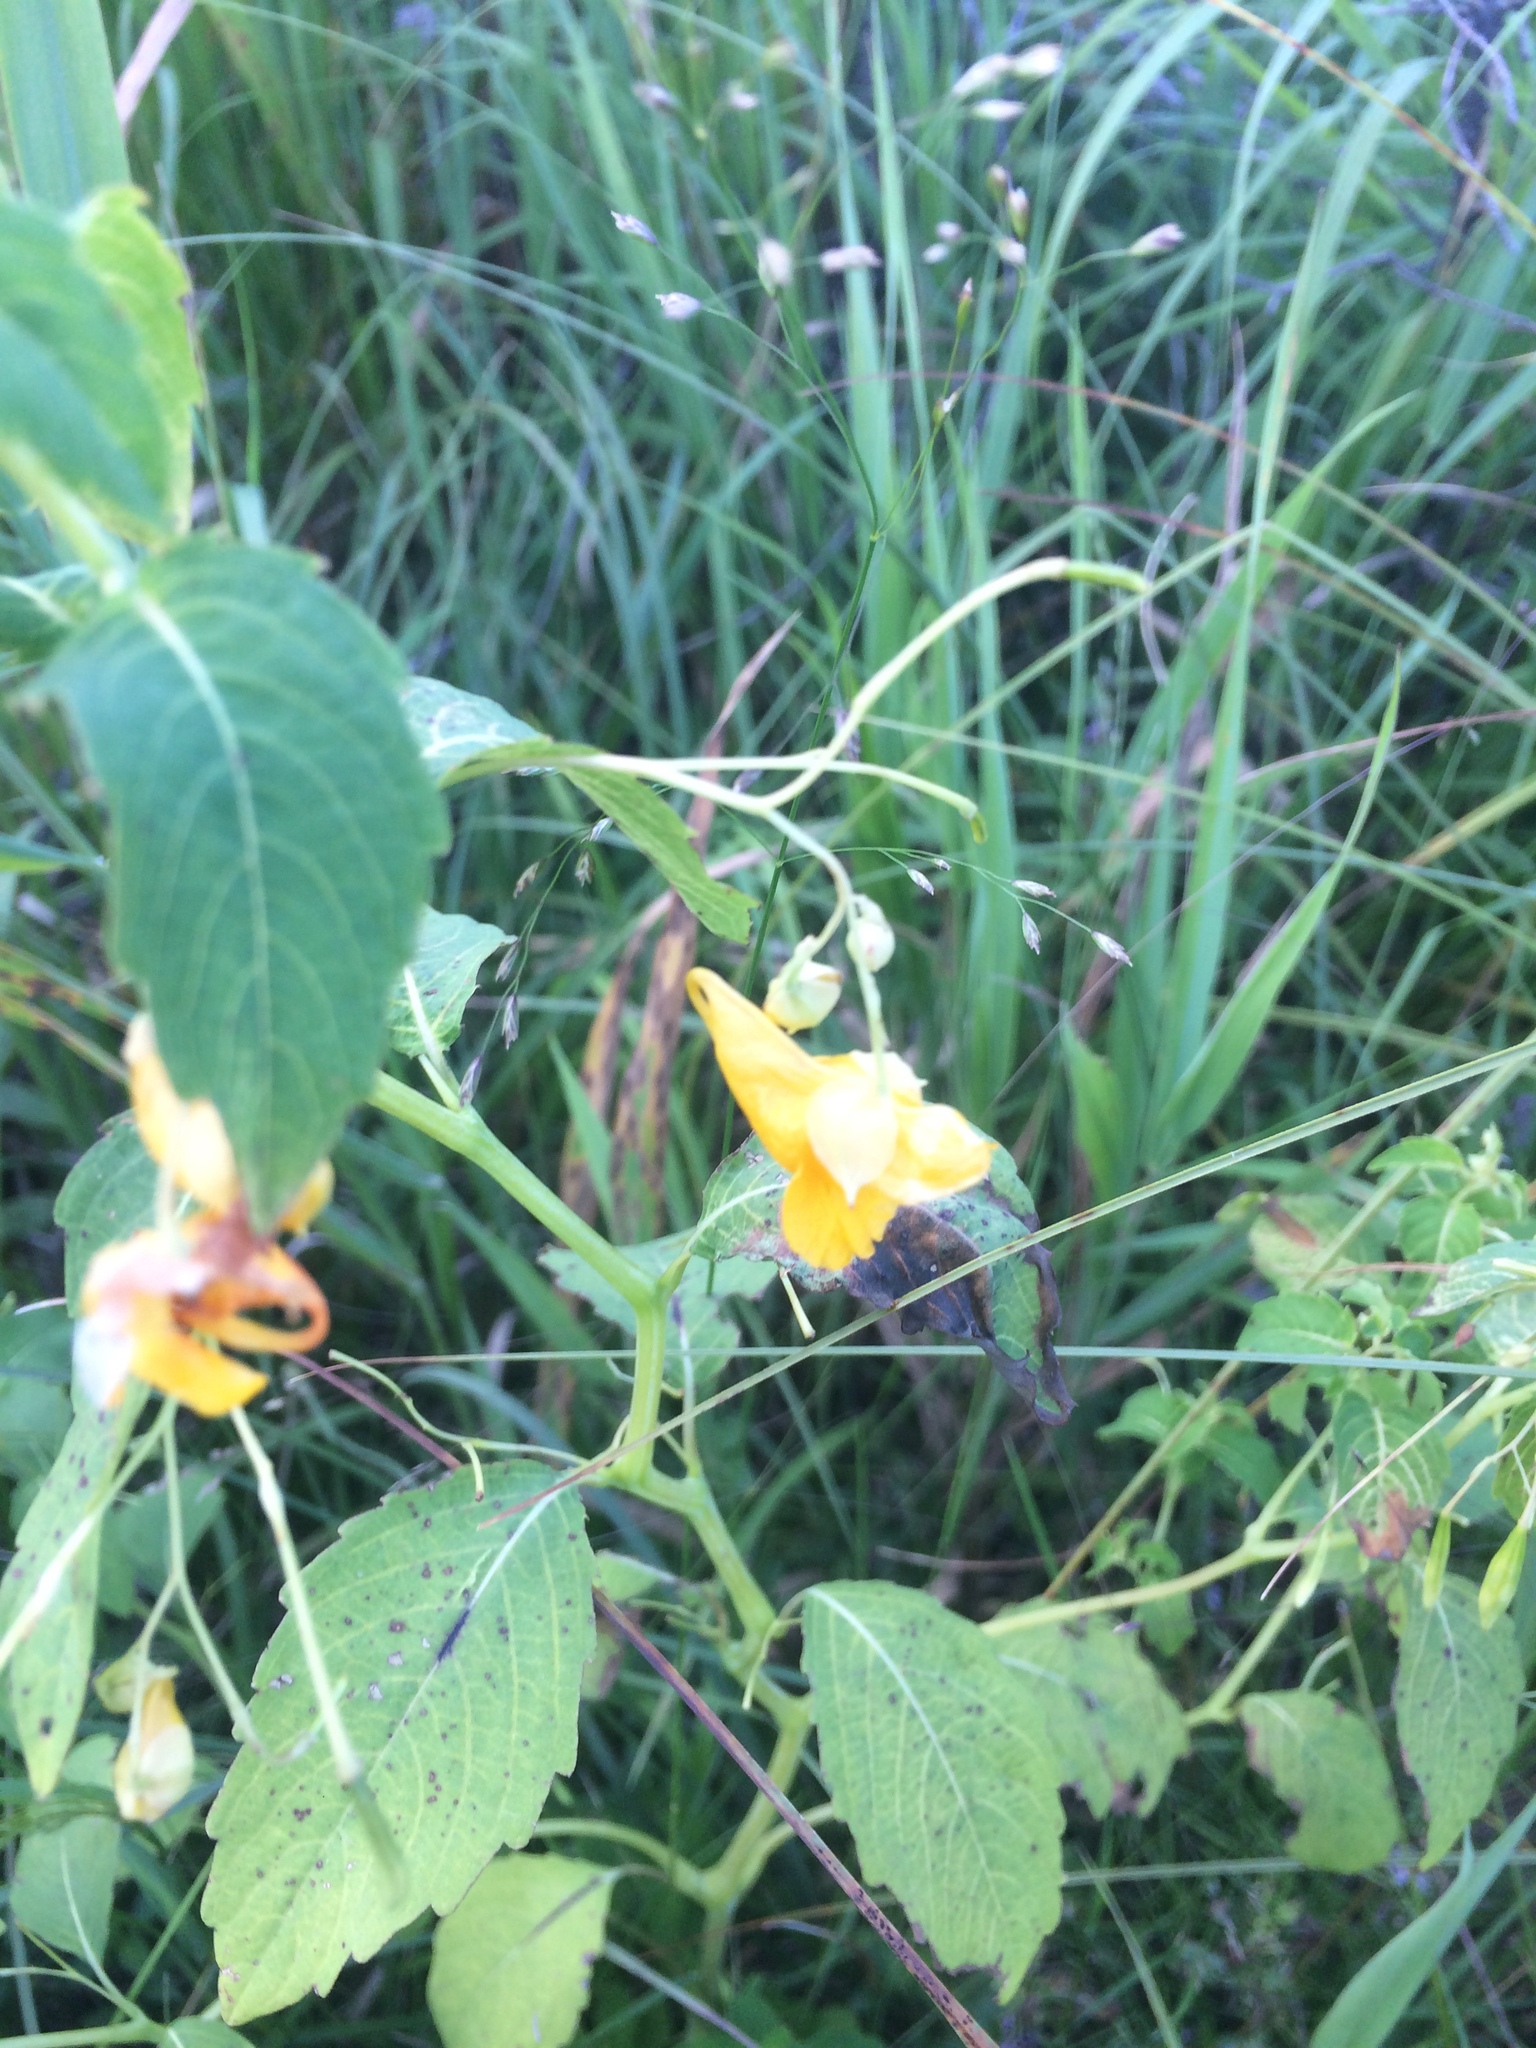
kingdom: Plantae
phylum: Tracheophyta
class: Magnoliopsida
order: Ericales
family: Balsaminaceae
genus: Impatiens
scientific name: Impatiens capensis
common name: Orange balsam
